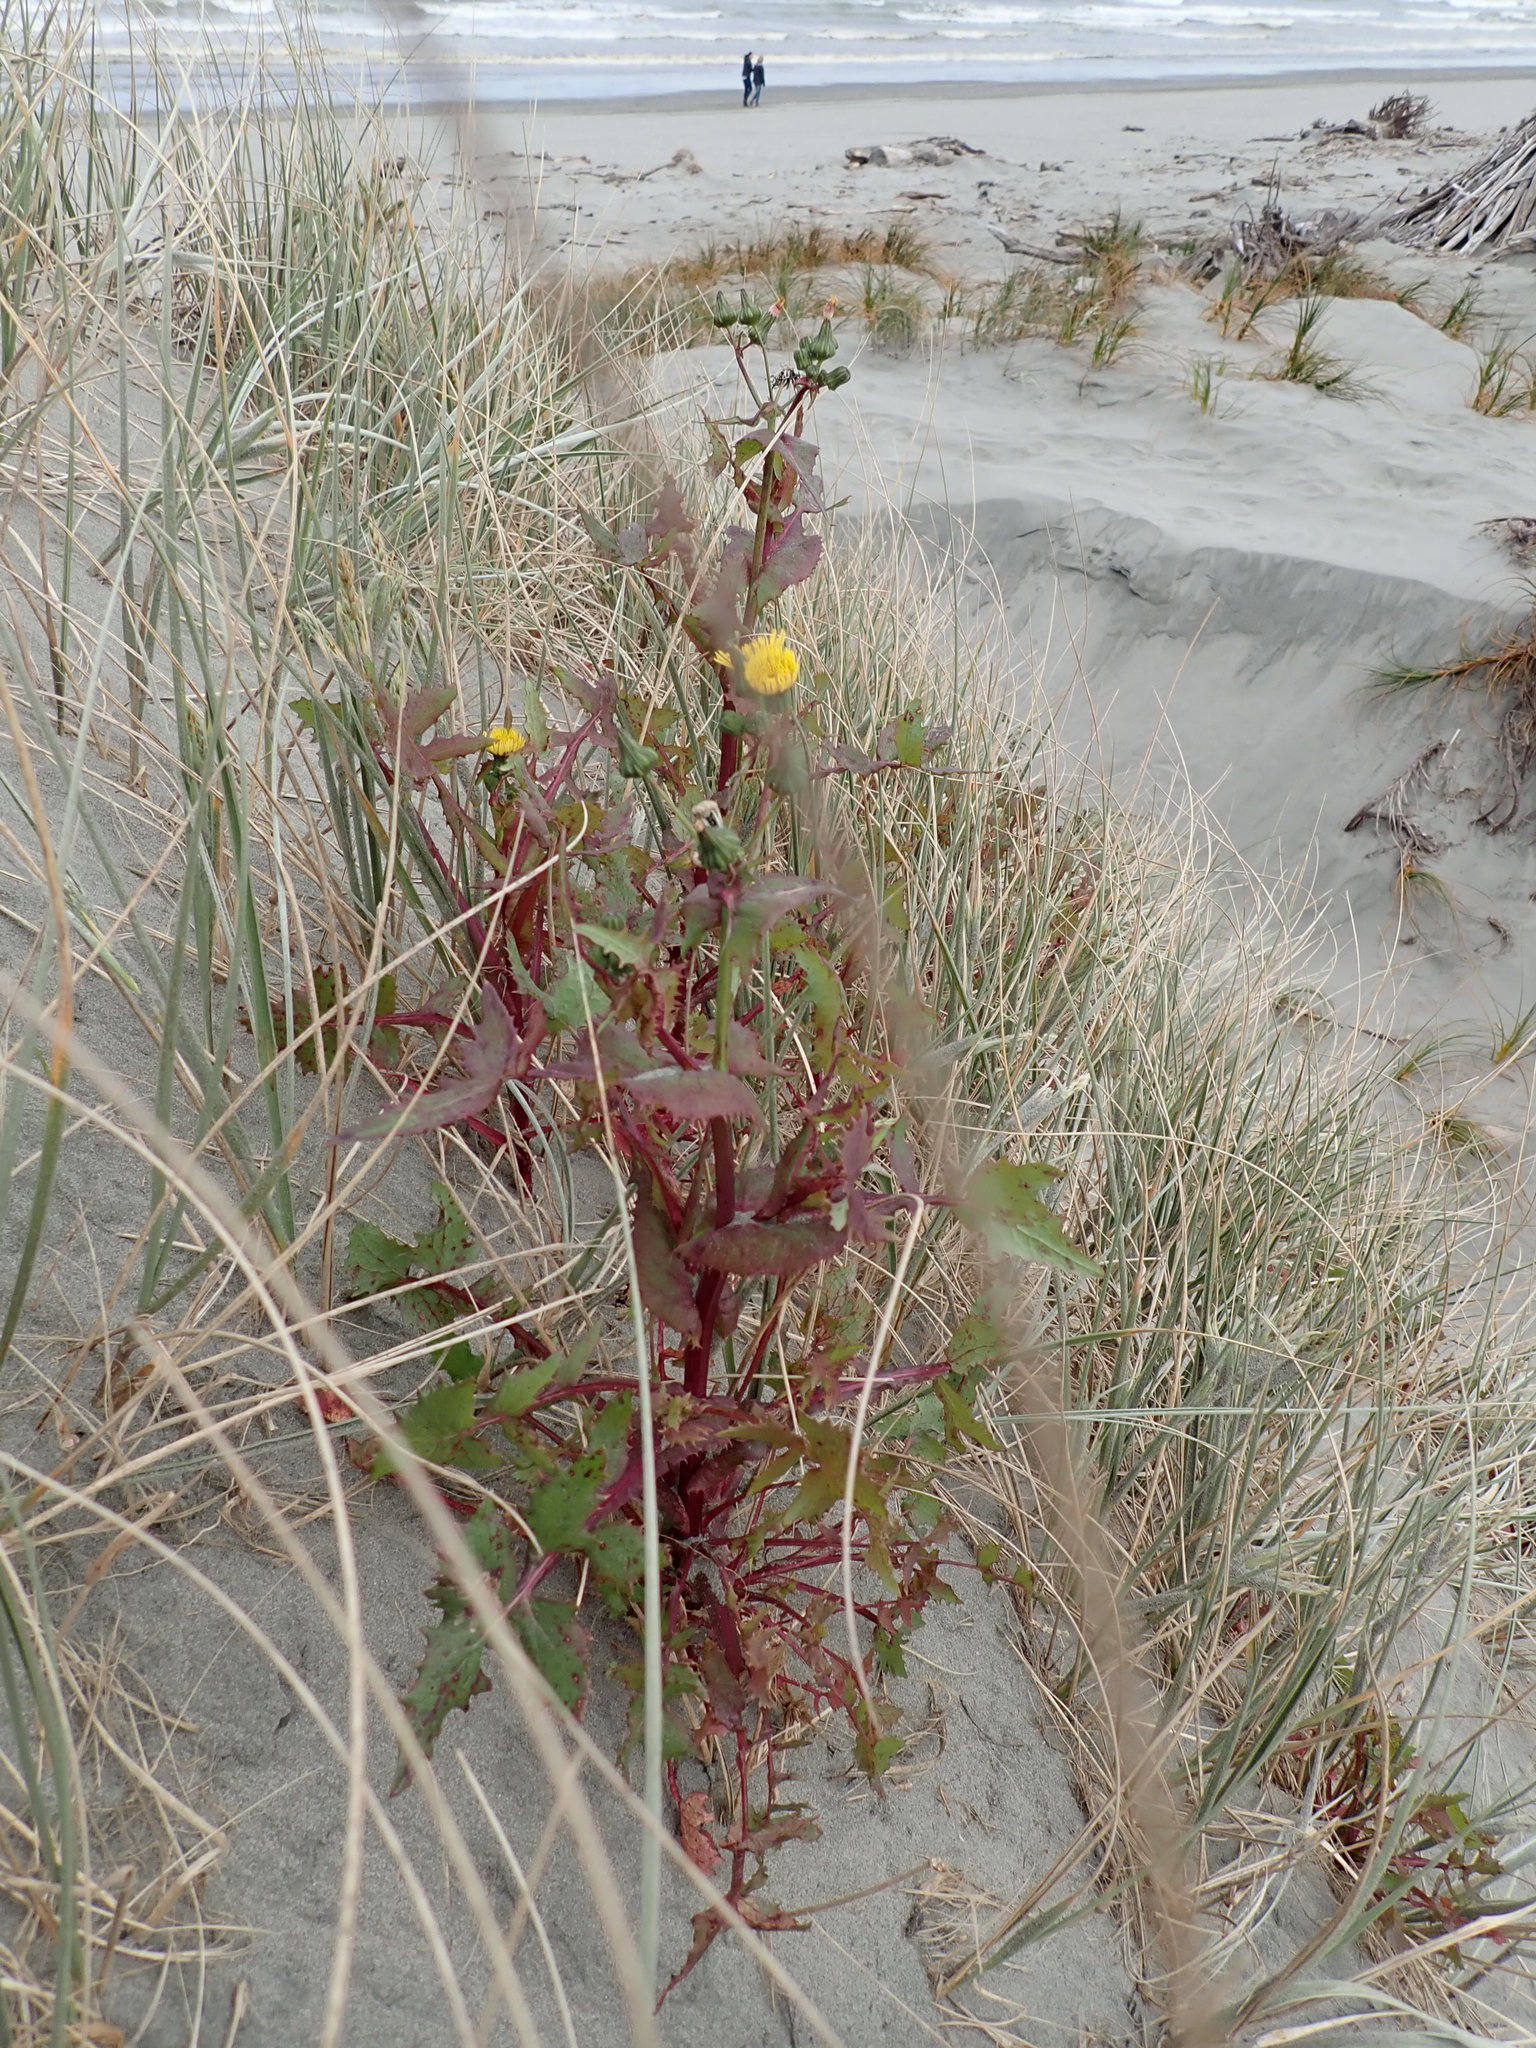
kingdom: Plantae
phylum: Tracheophyta
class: Magnoliopsida
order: Asterales
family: Asteraceae
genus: Sonchus
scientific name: Sonchus oleraceus
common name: Common sowthistle
